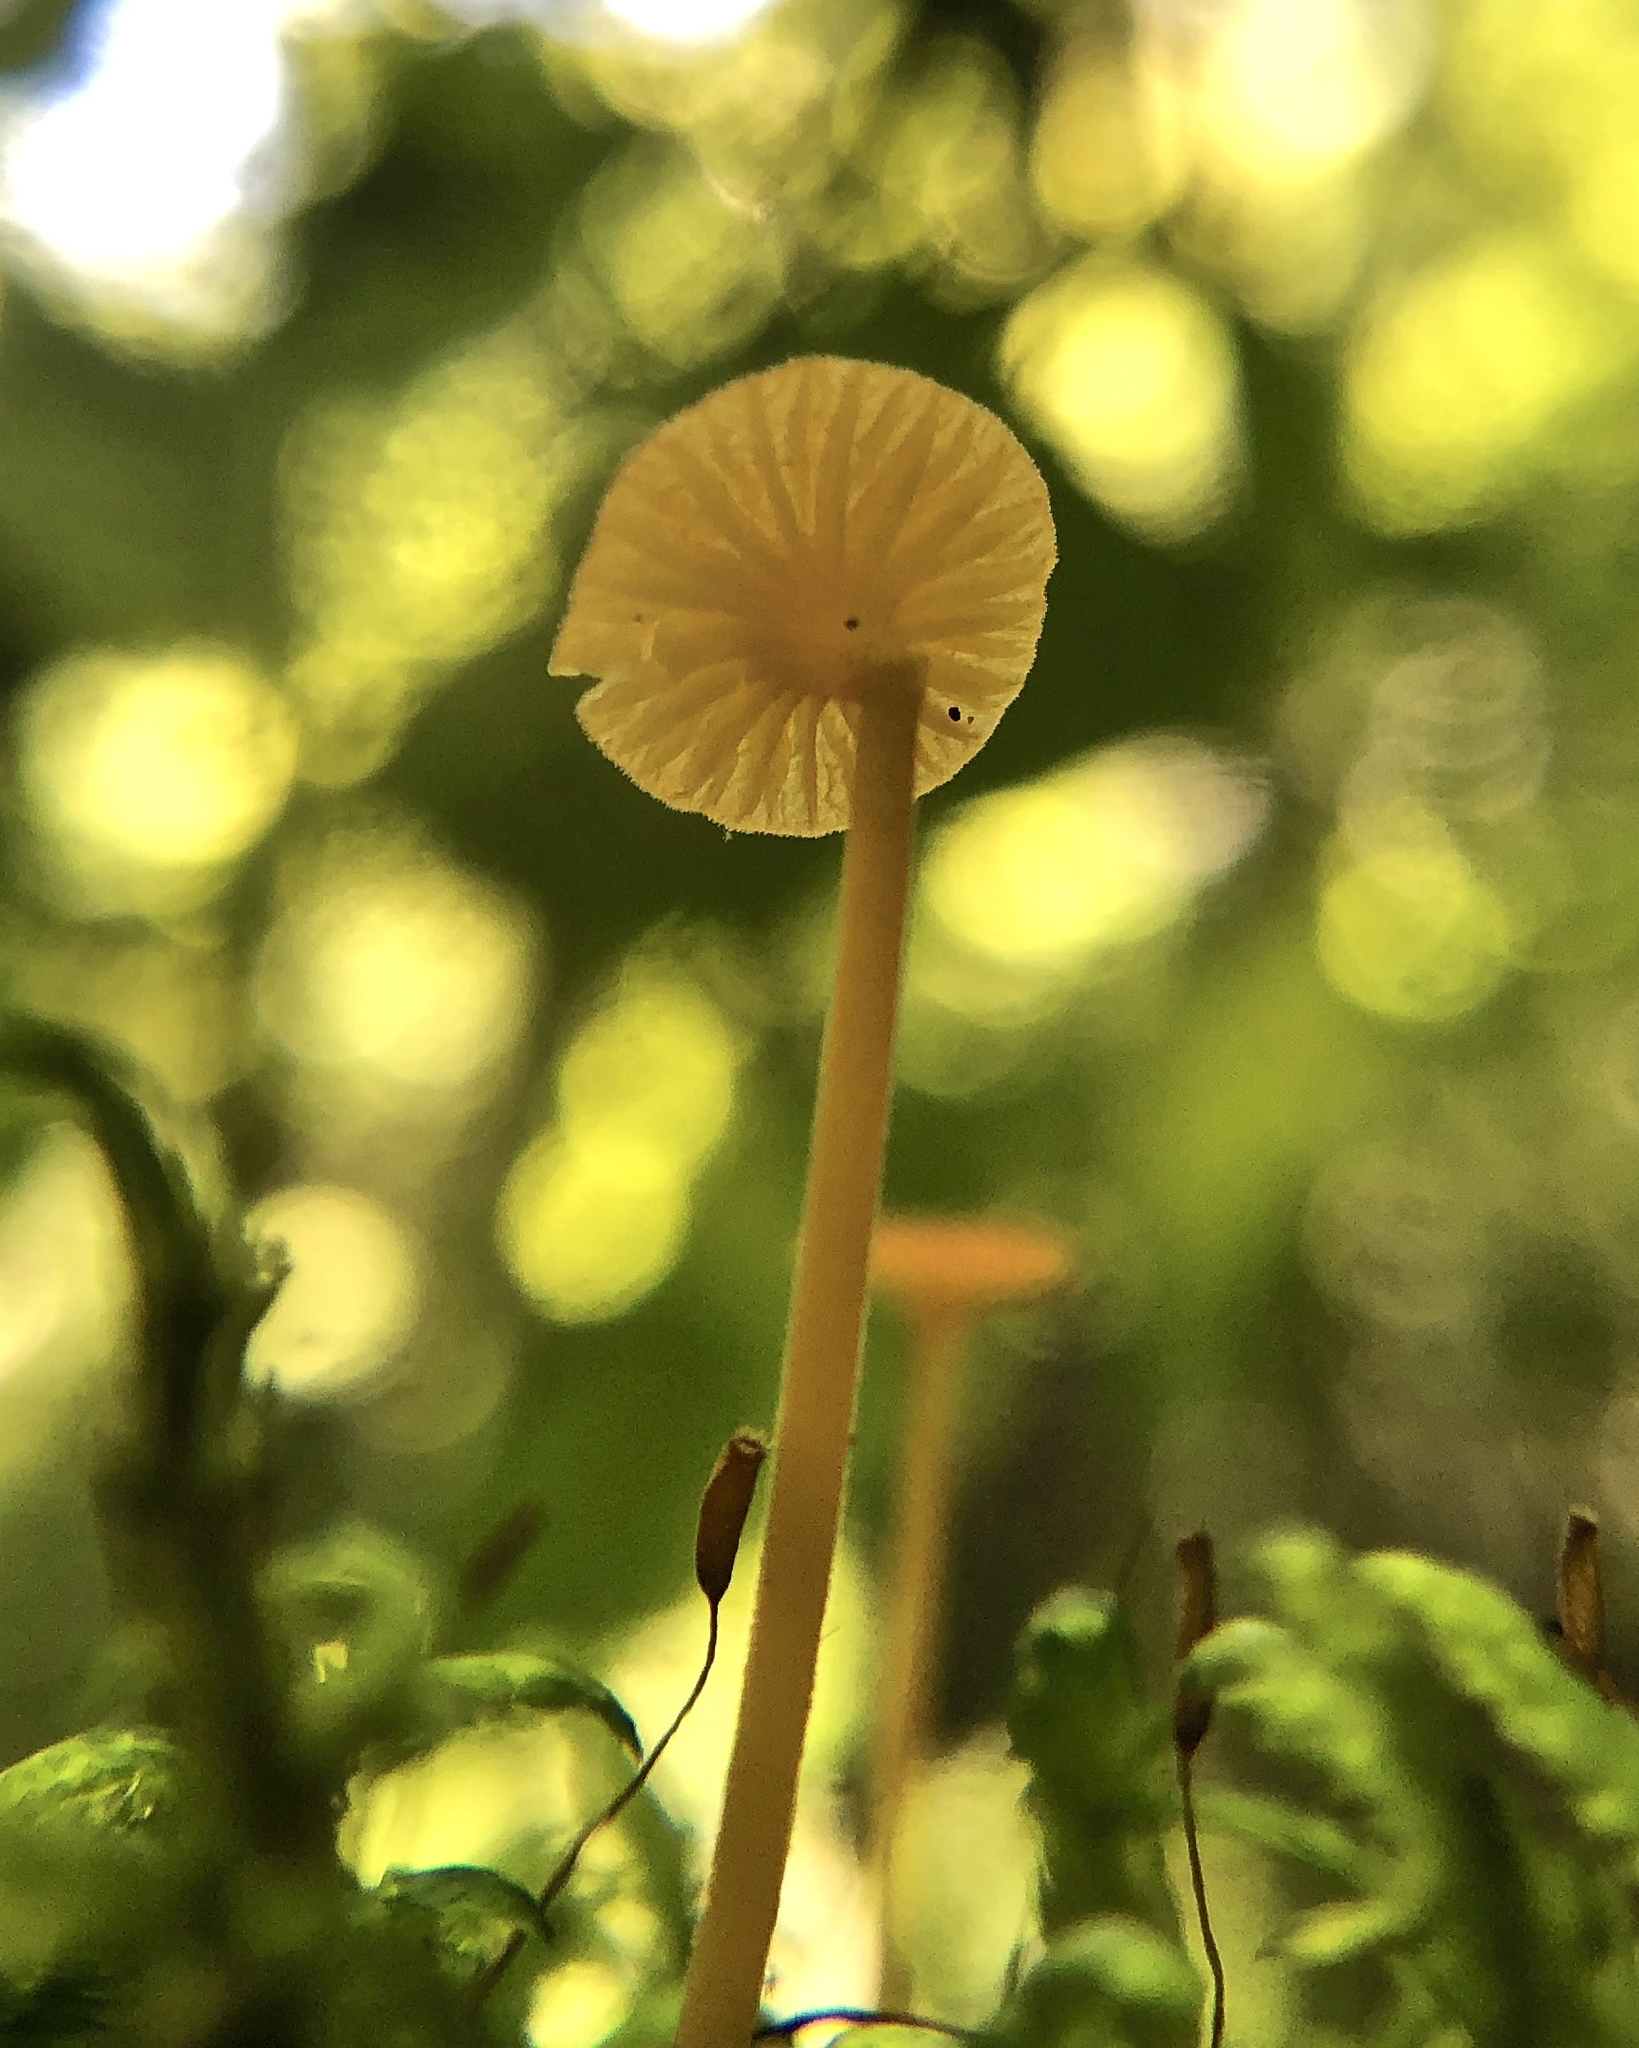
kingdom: Fungi
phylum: Basidiomycota
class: Agaricomycetes
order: Hymenochaetales
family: Rickenellaceae
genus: Rickenella
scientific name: Rickenella fibula
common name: Orange mosscap
